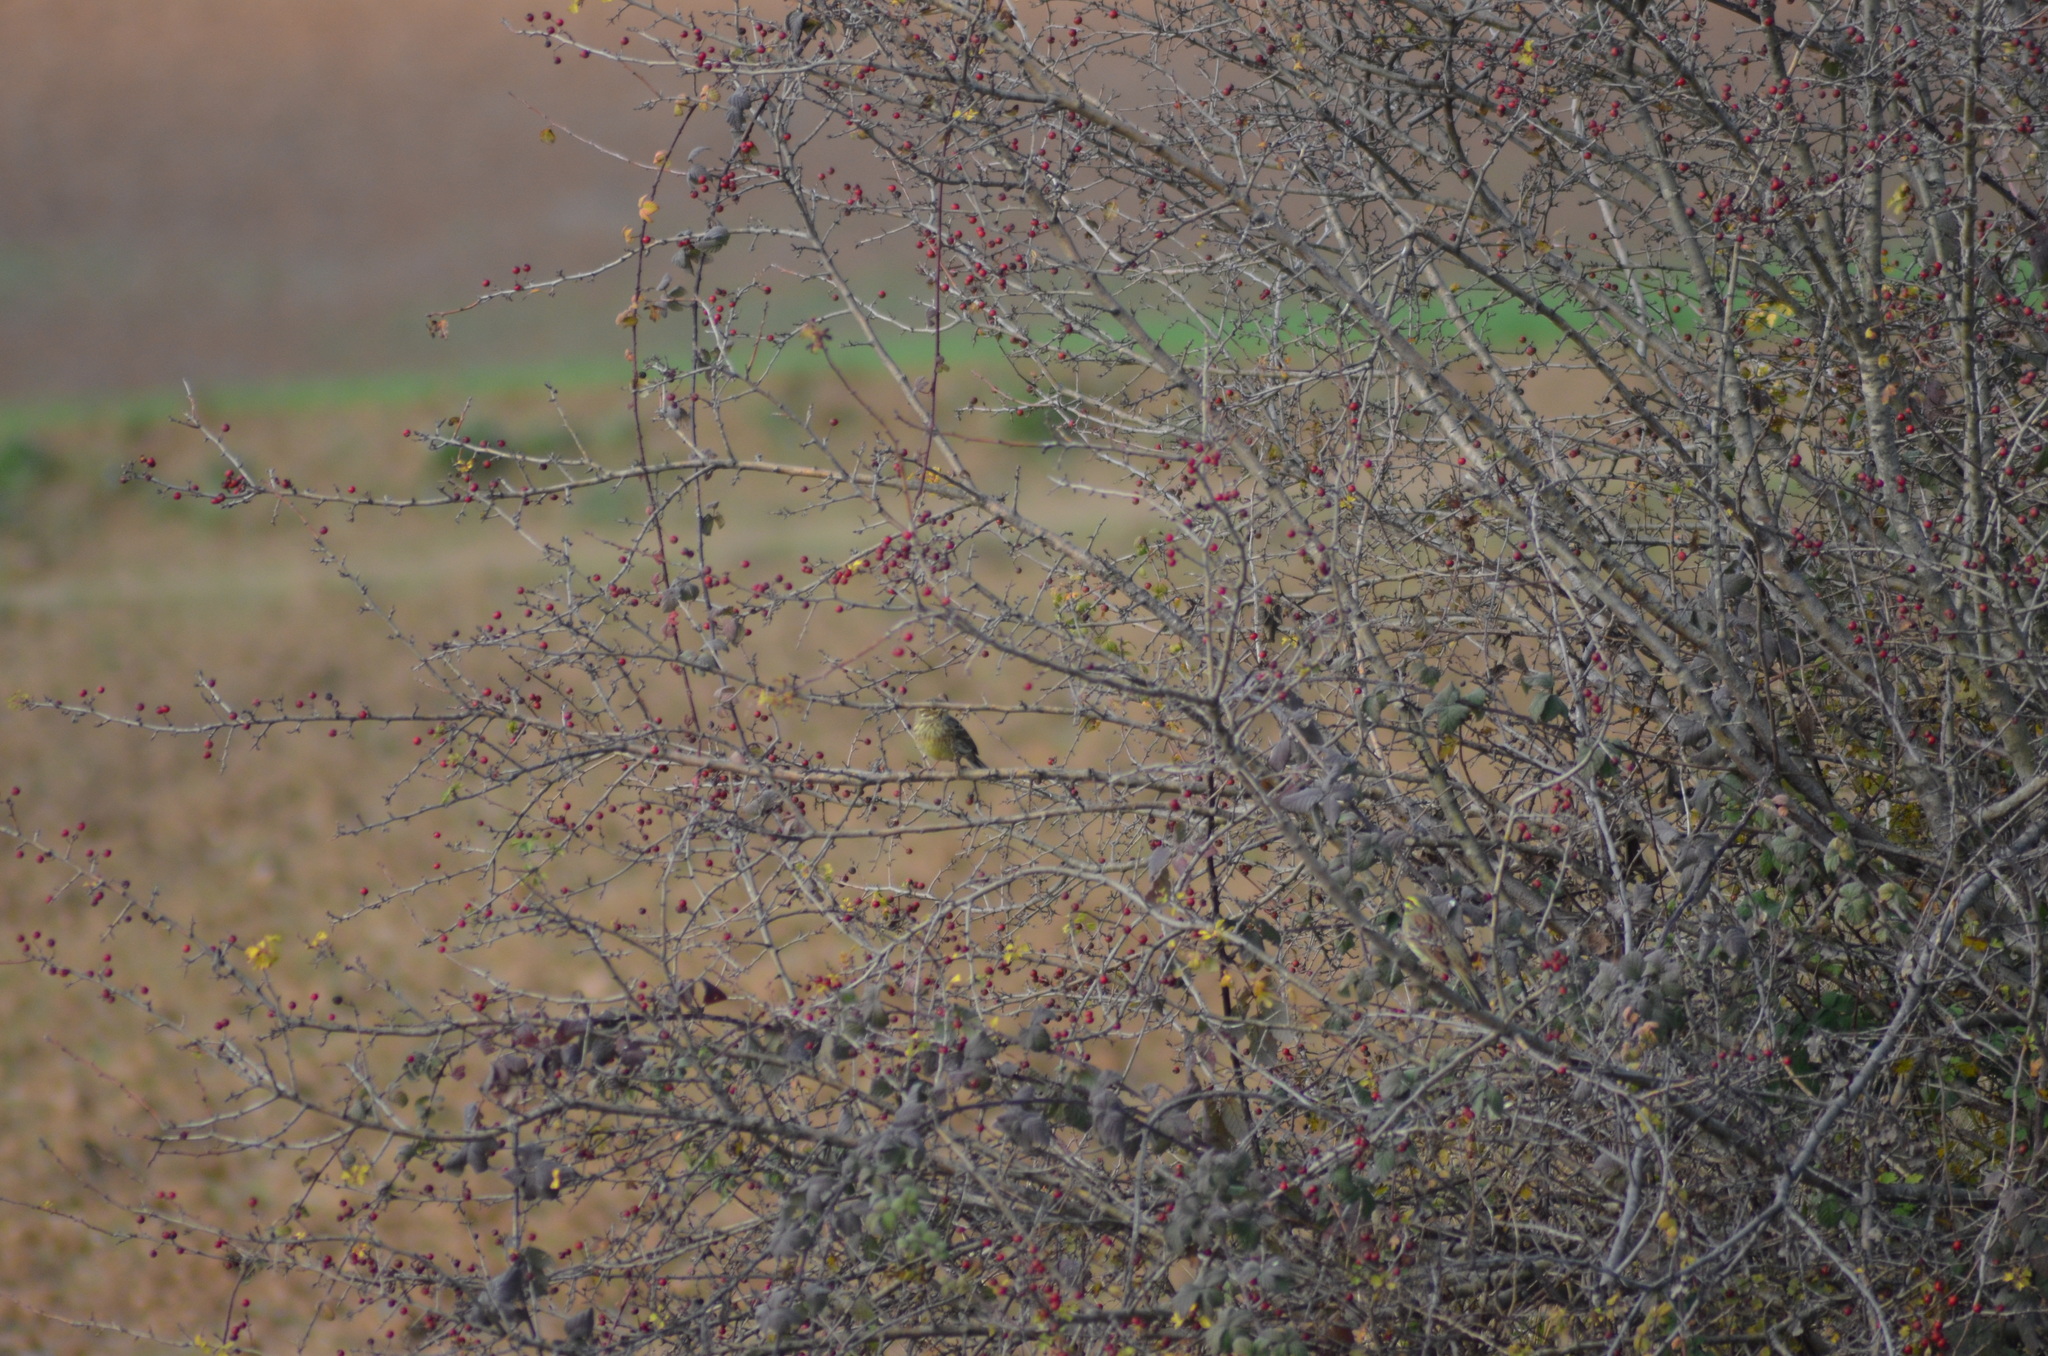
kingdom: Animalia
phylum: Chordata
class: Aves
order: Passeriformes
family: Emberizidae
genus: Emberiza
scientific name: Emberiza cirlus
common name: Cirl bunting
